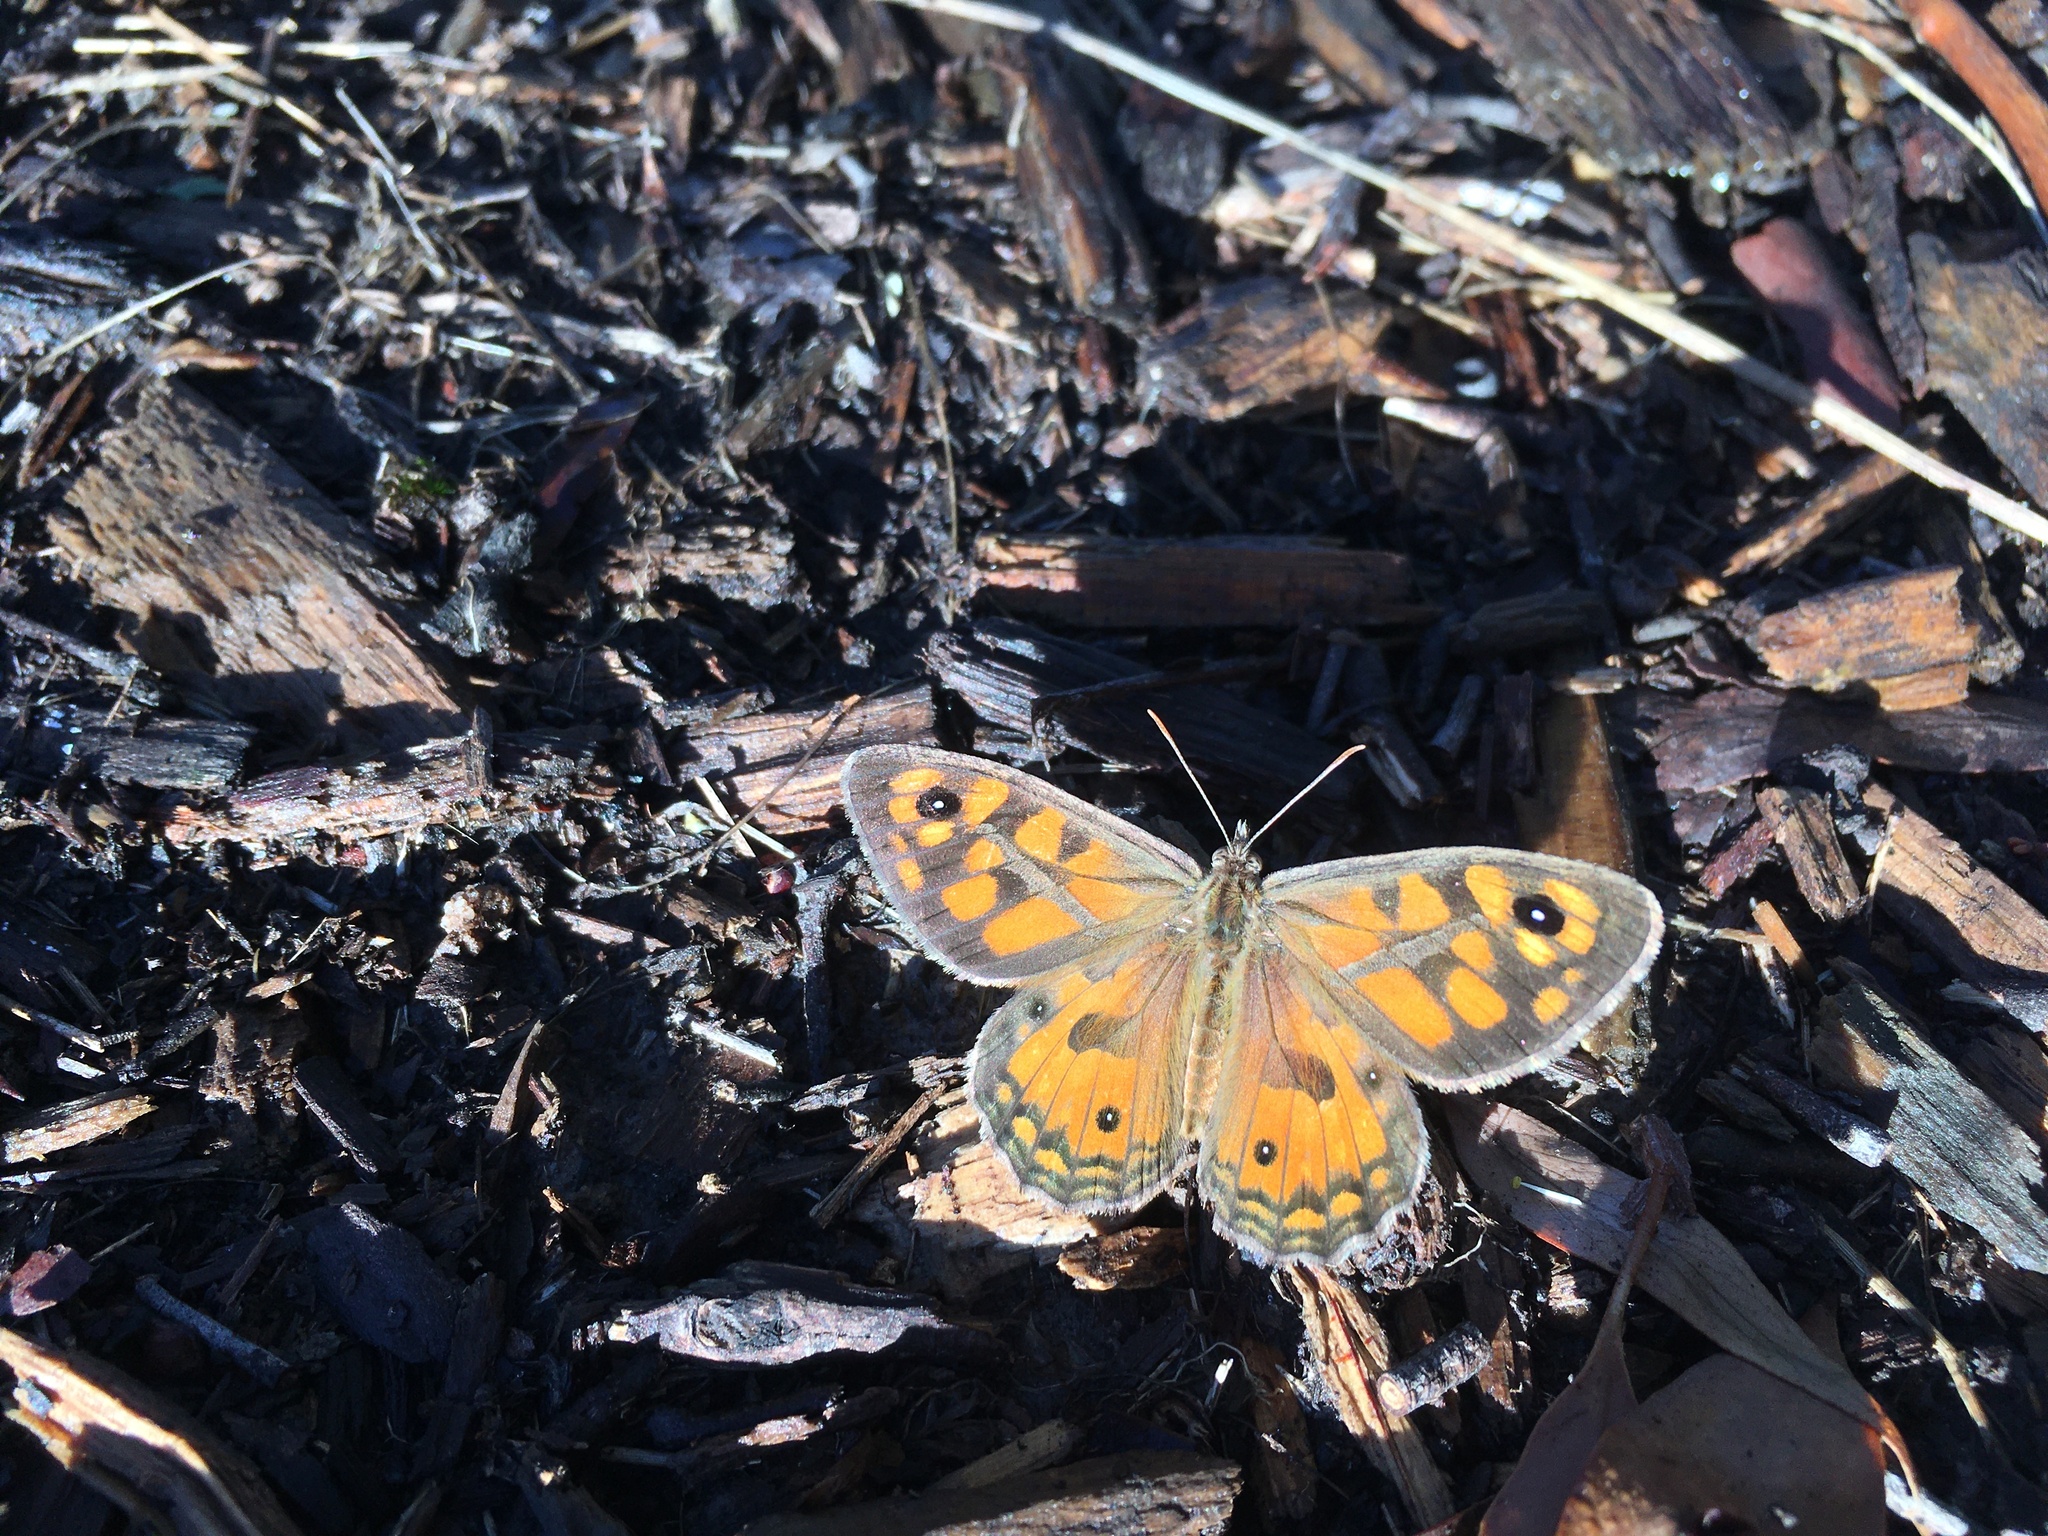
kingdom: Animalia
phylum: Arthropoda
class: Insecta
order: Lepidoptera
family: Nymphalidae
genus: Geitoneura
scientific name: Geitoneura klugii
